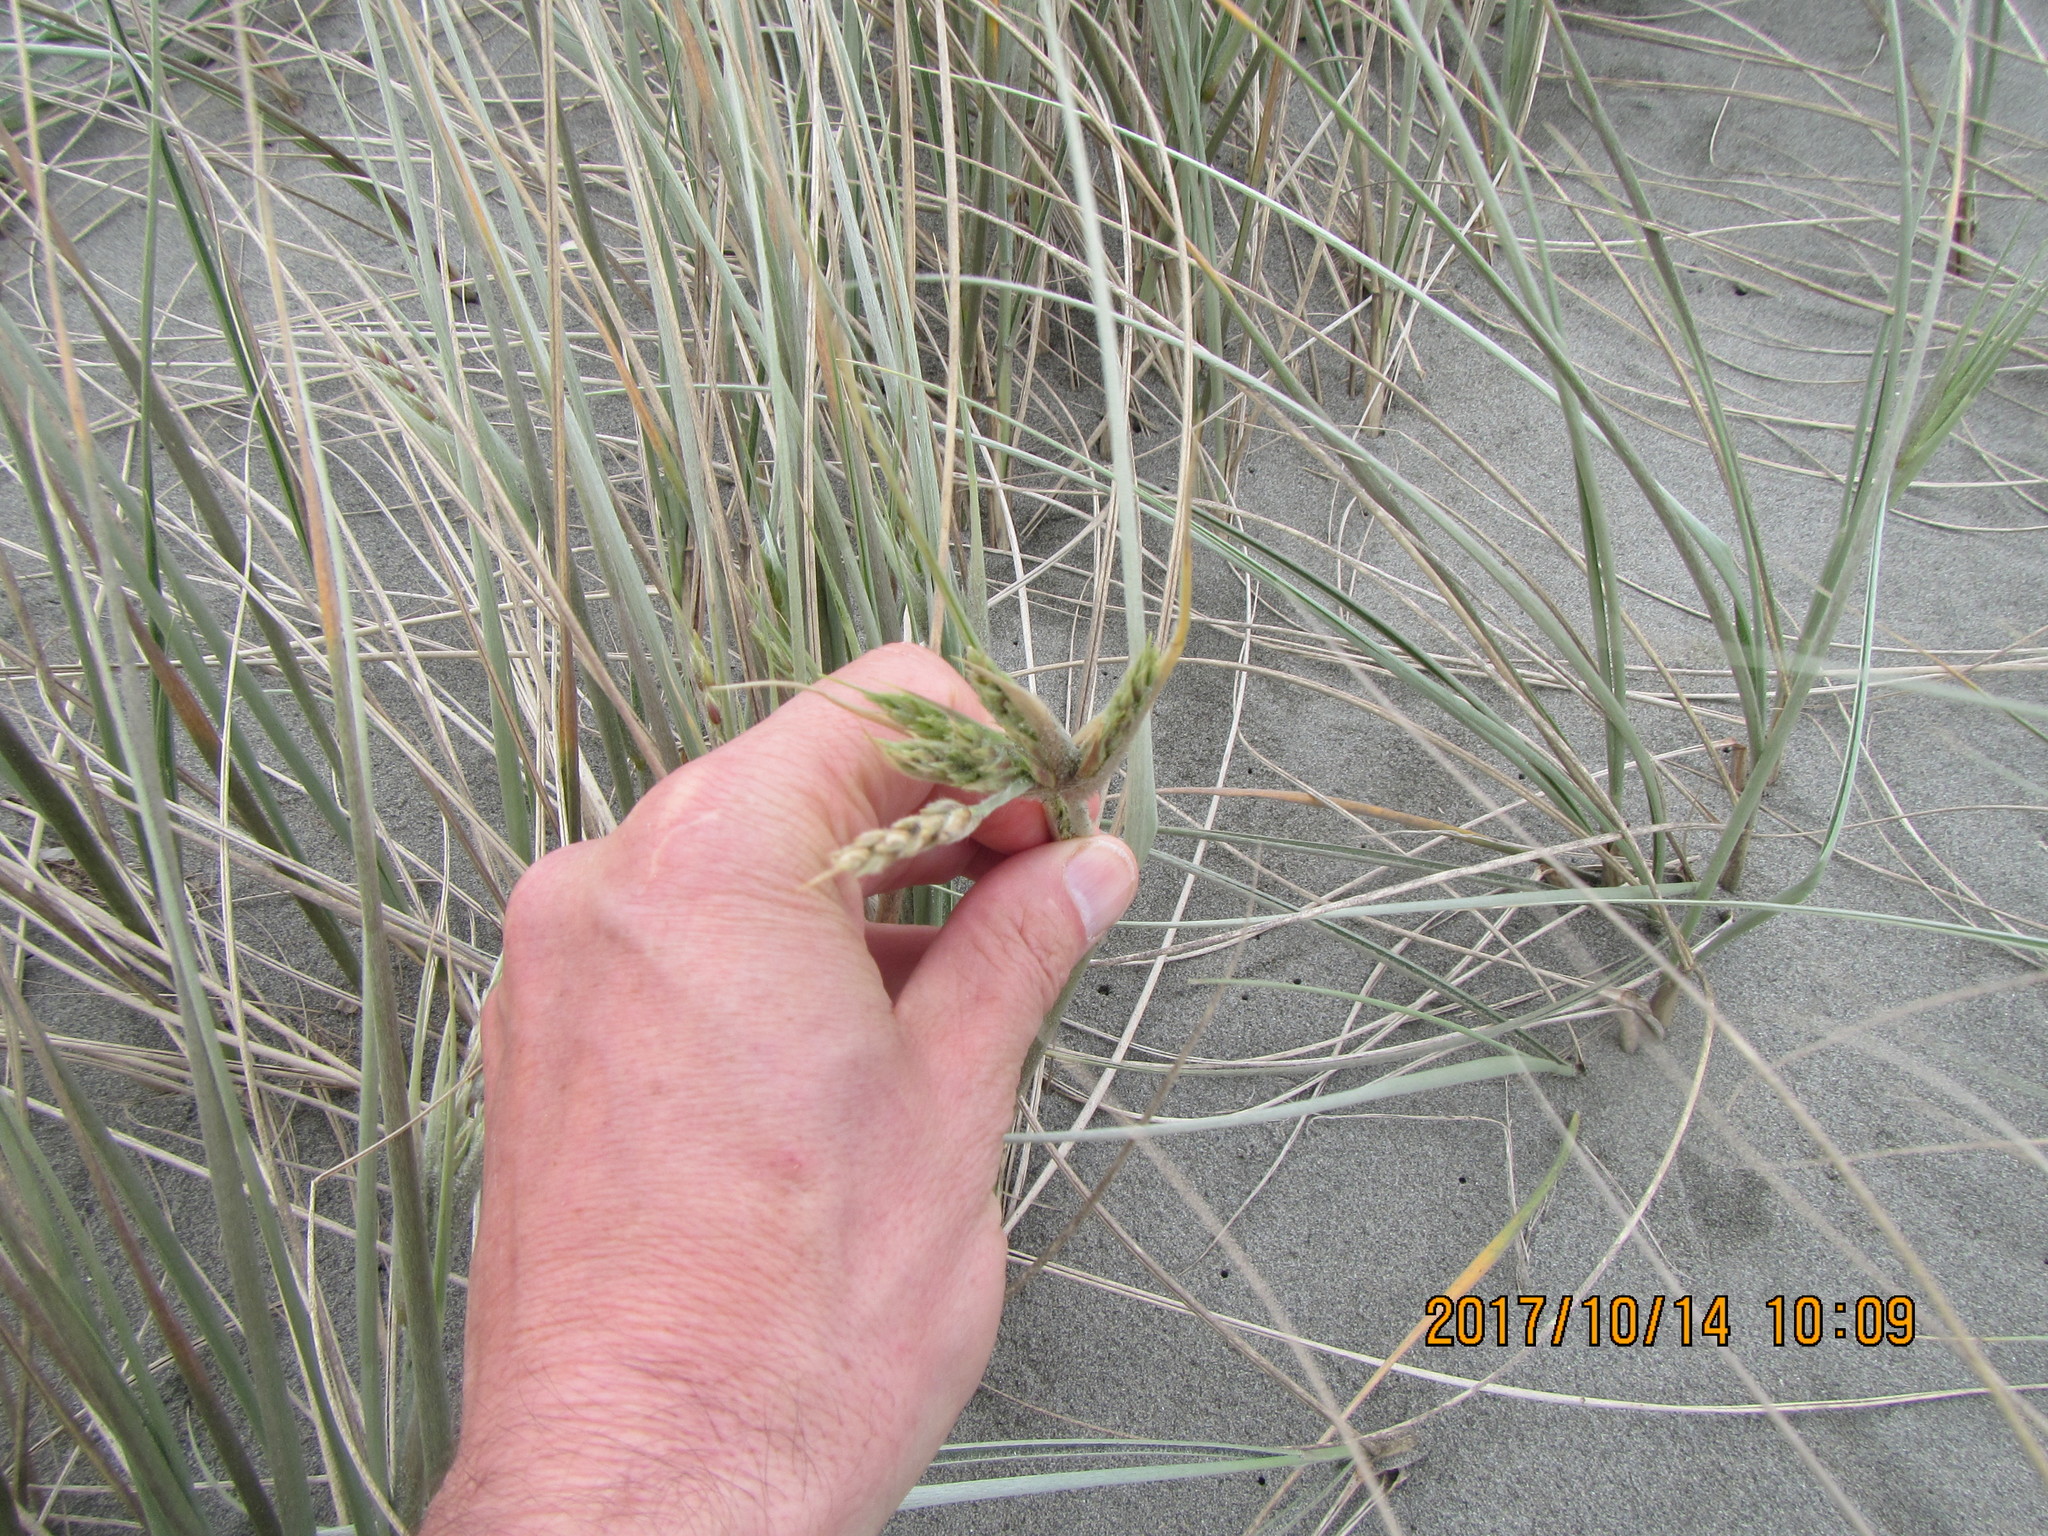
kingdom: Plantae
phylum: Tracheophyta
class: Liliopsida
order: Poales
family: Poaceae
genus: Spinifex
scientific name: Spinifex sericeus
